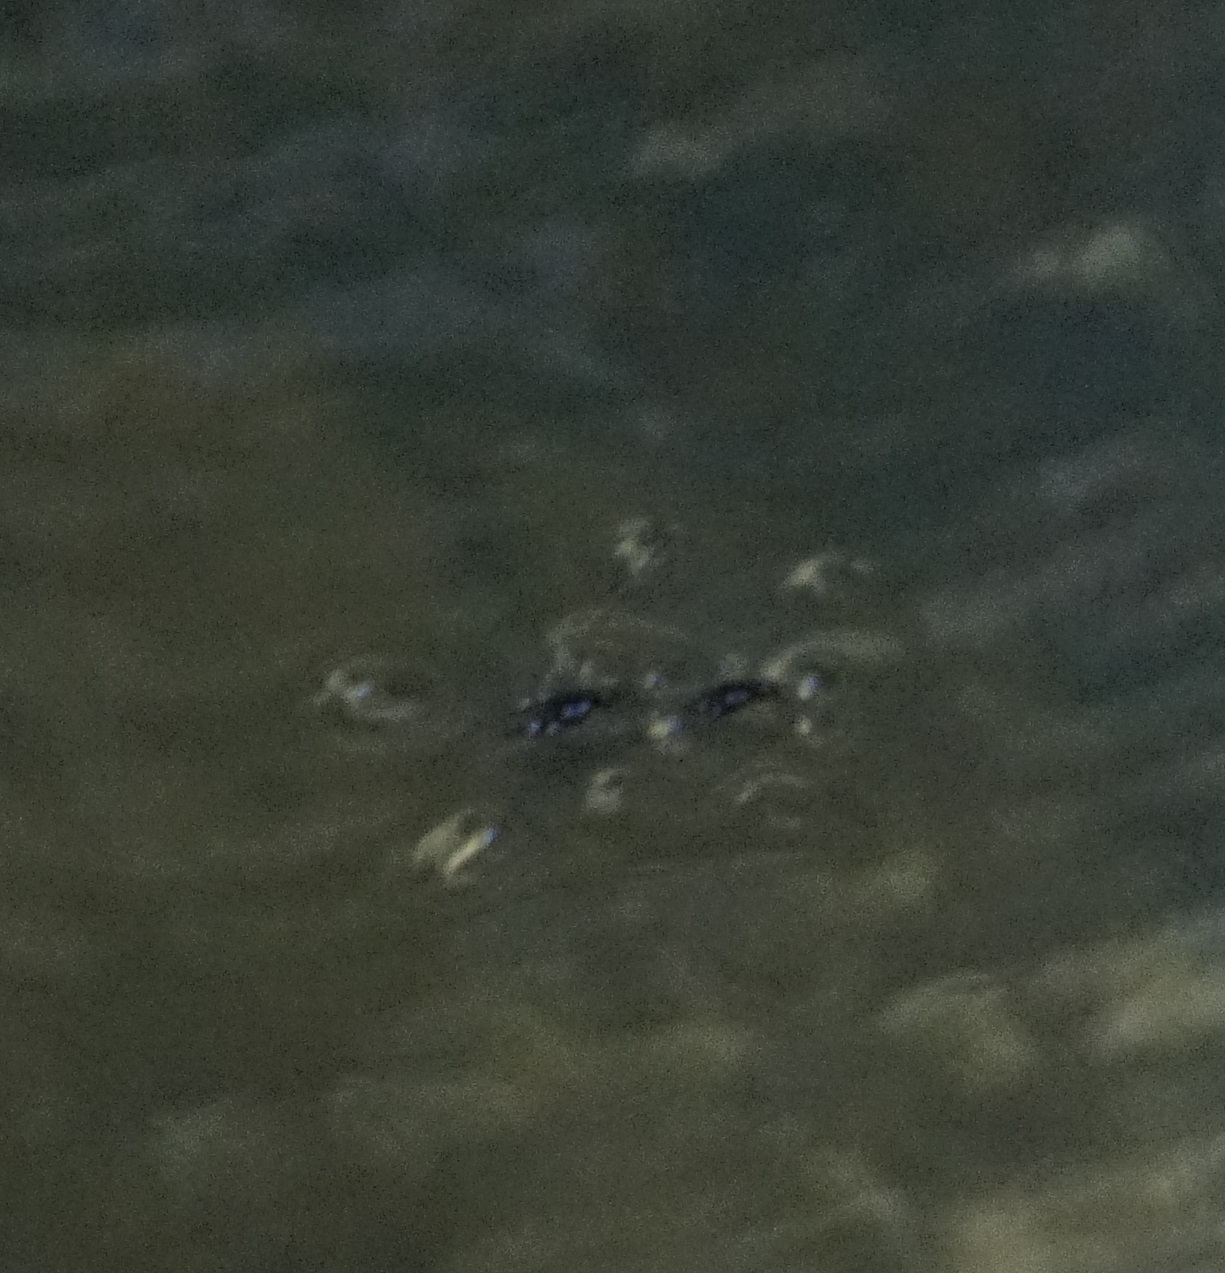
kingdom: Animalia
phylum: Arthropoda
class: Insecta
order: Hemiptera
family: Gerridae
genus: Tenagogerris
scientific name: Tenagogerris euphrosyne
